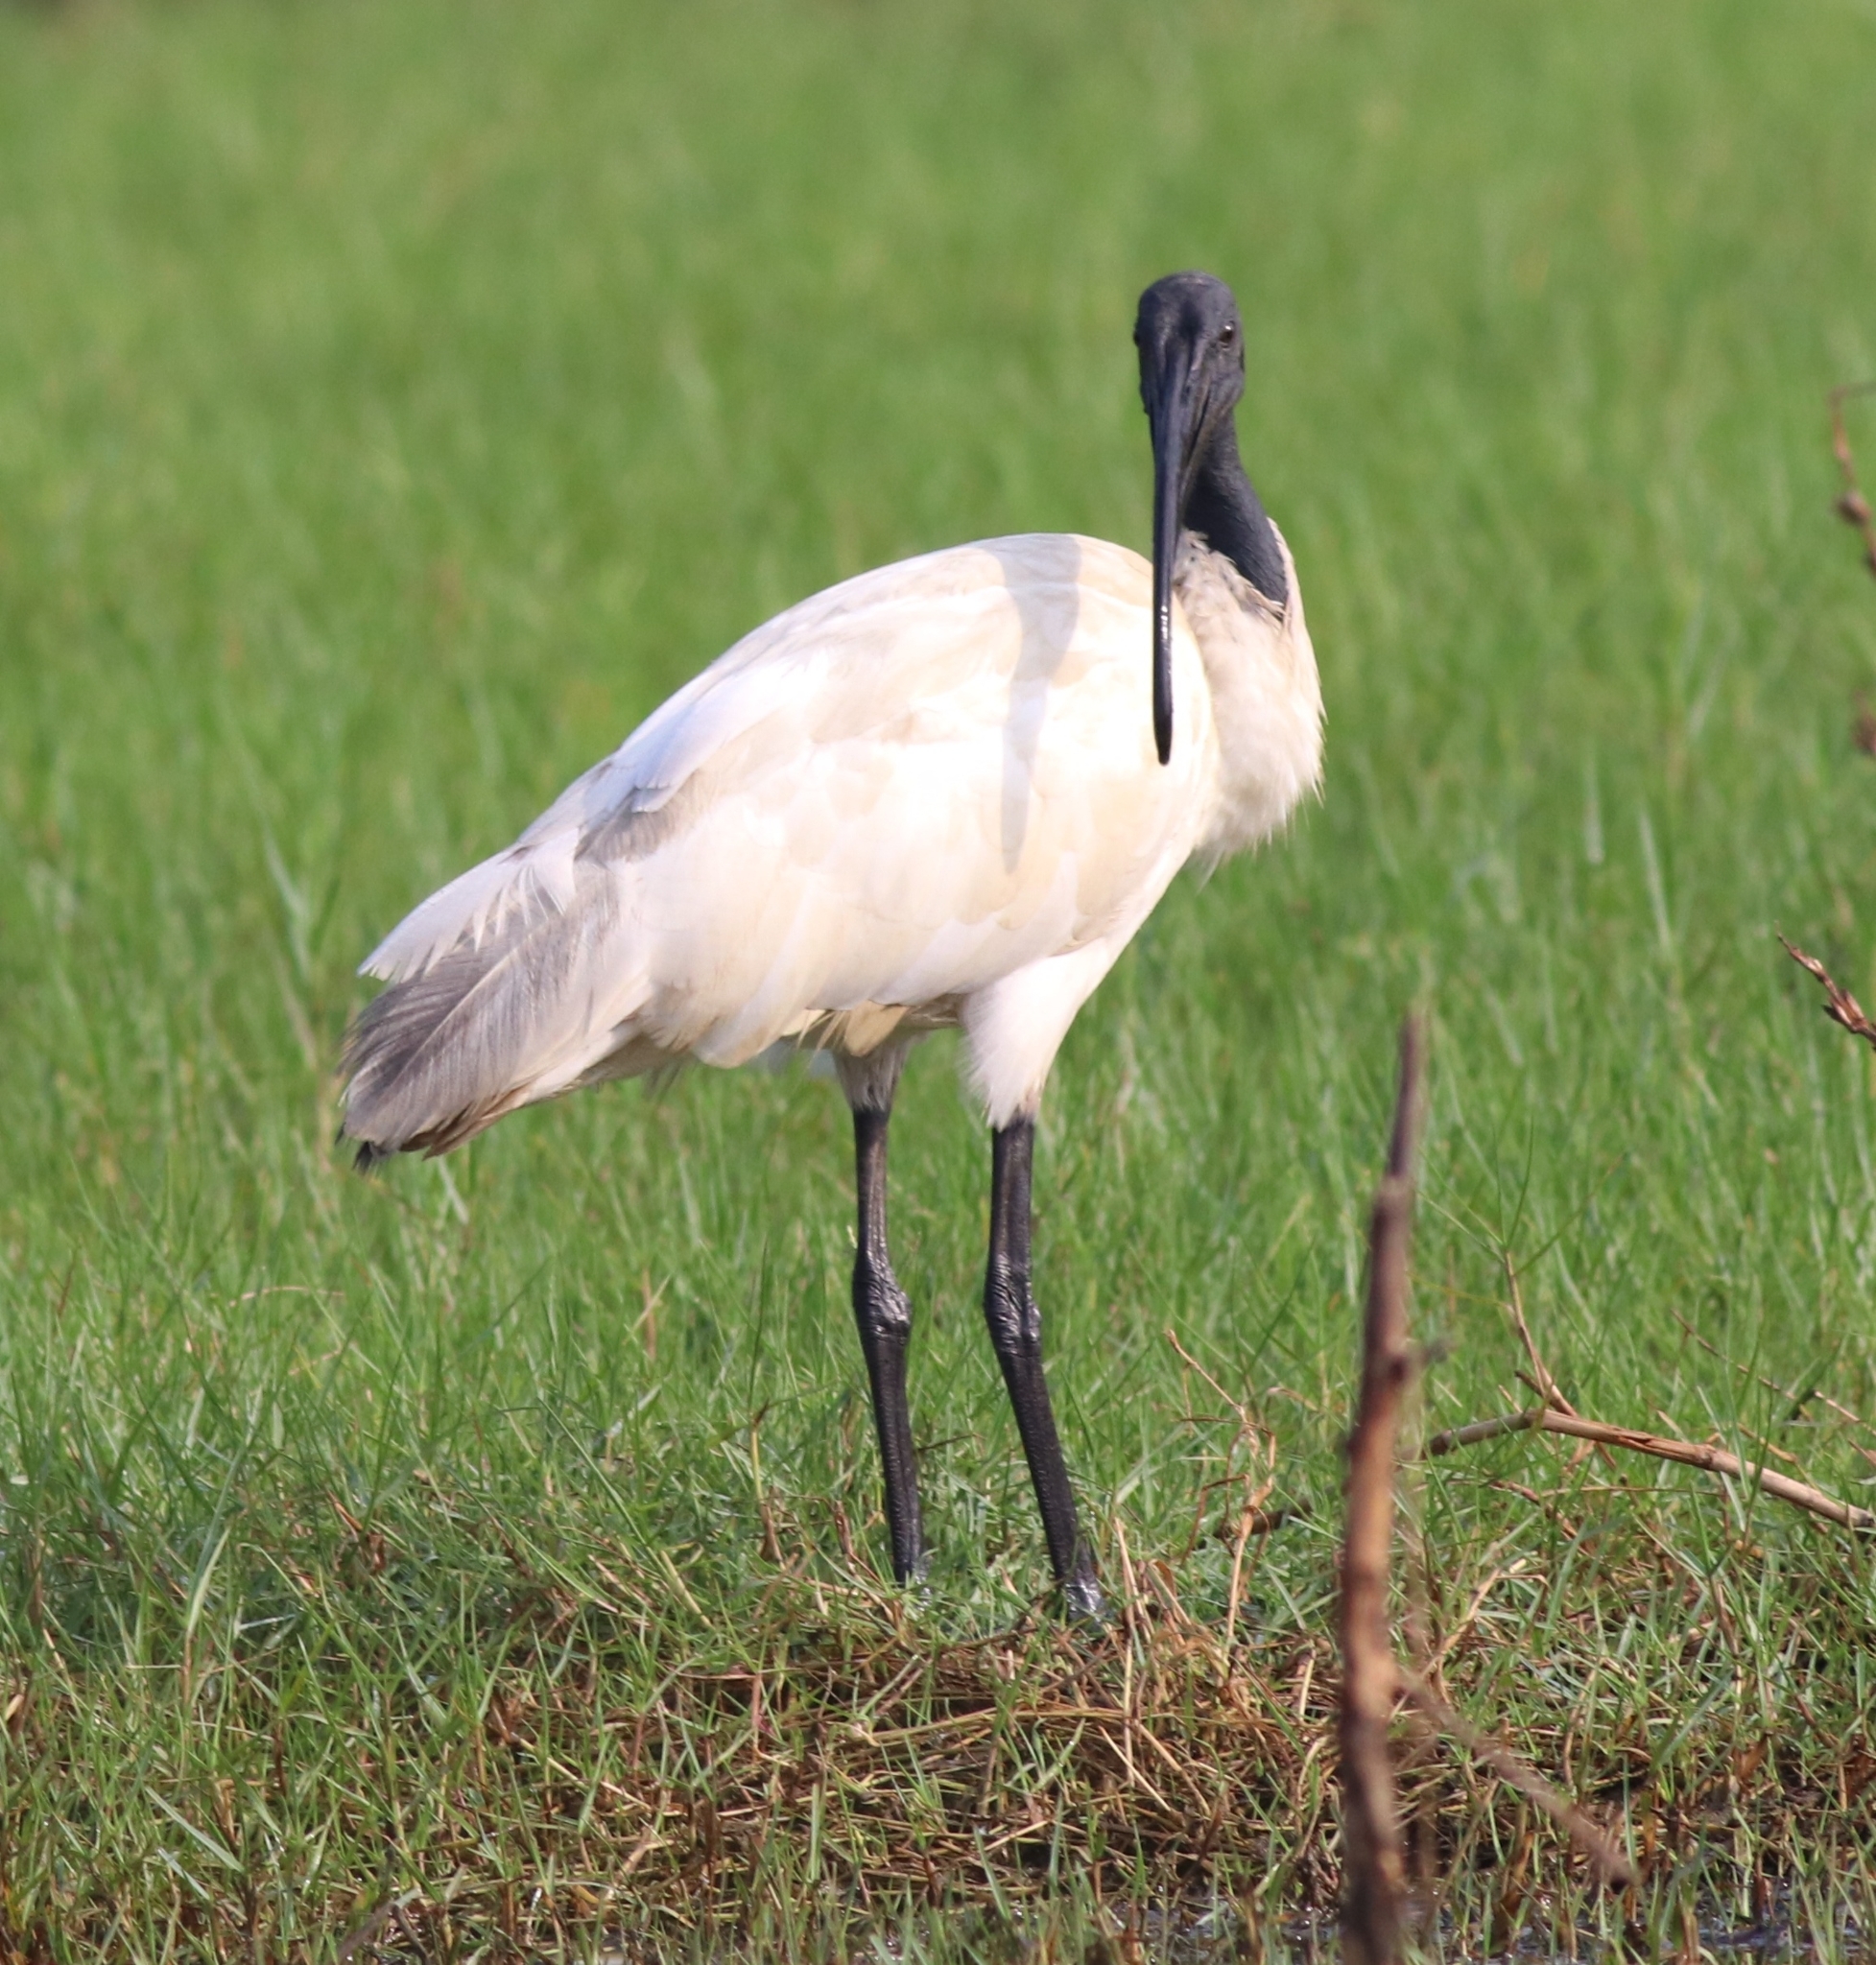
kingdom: Animalia
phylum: Chordata
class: Aves
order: Pelecaniformes
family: Threskiornithidae
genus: Threskiornis
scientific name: Threskiornis melanocephalus
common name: Black-headed ibis
